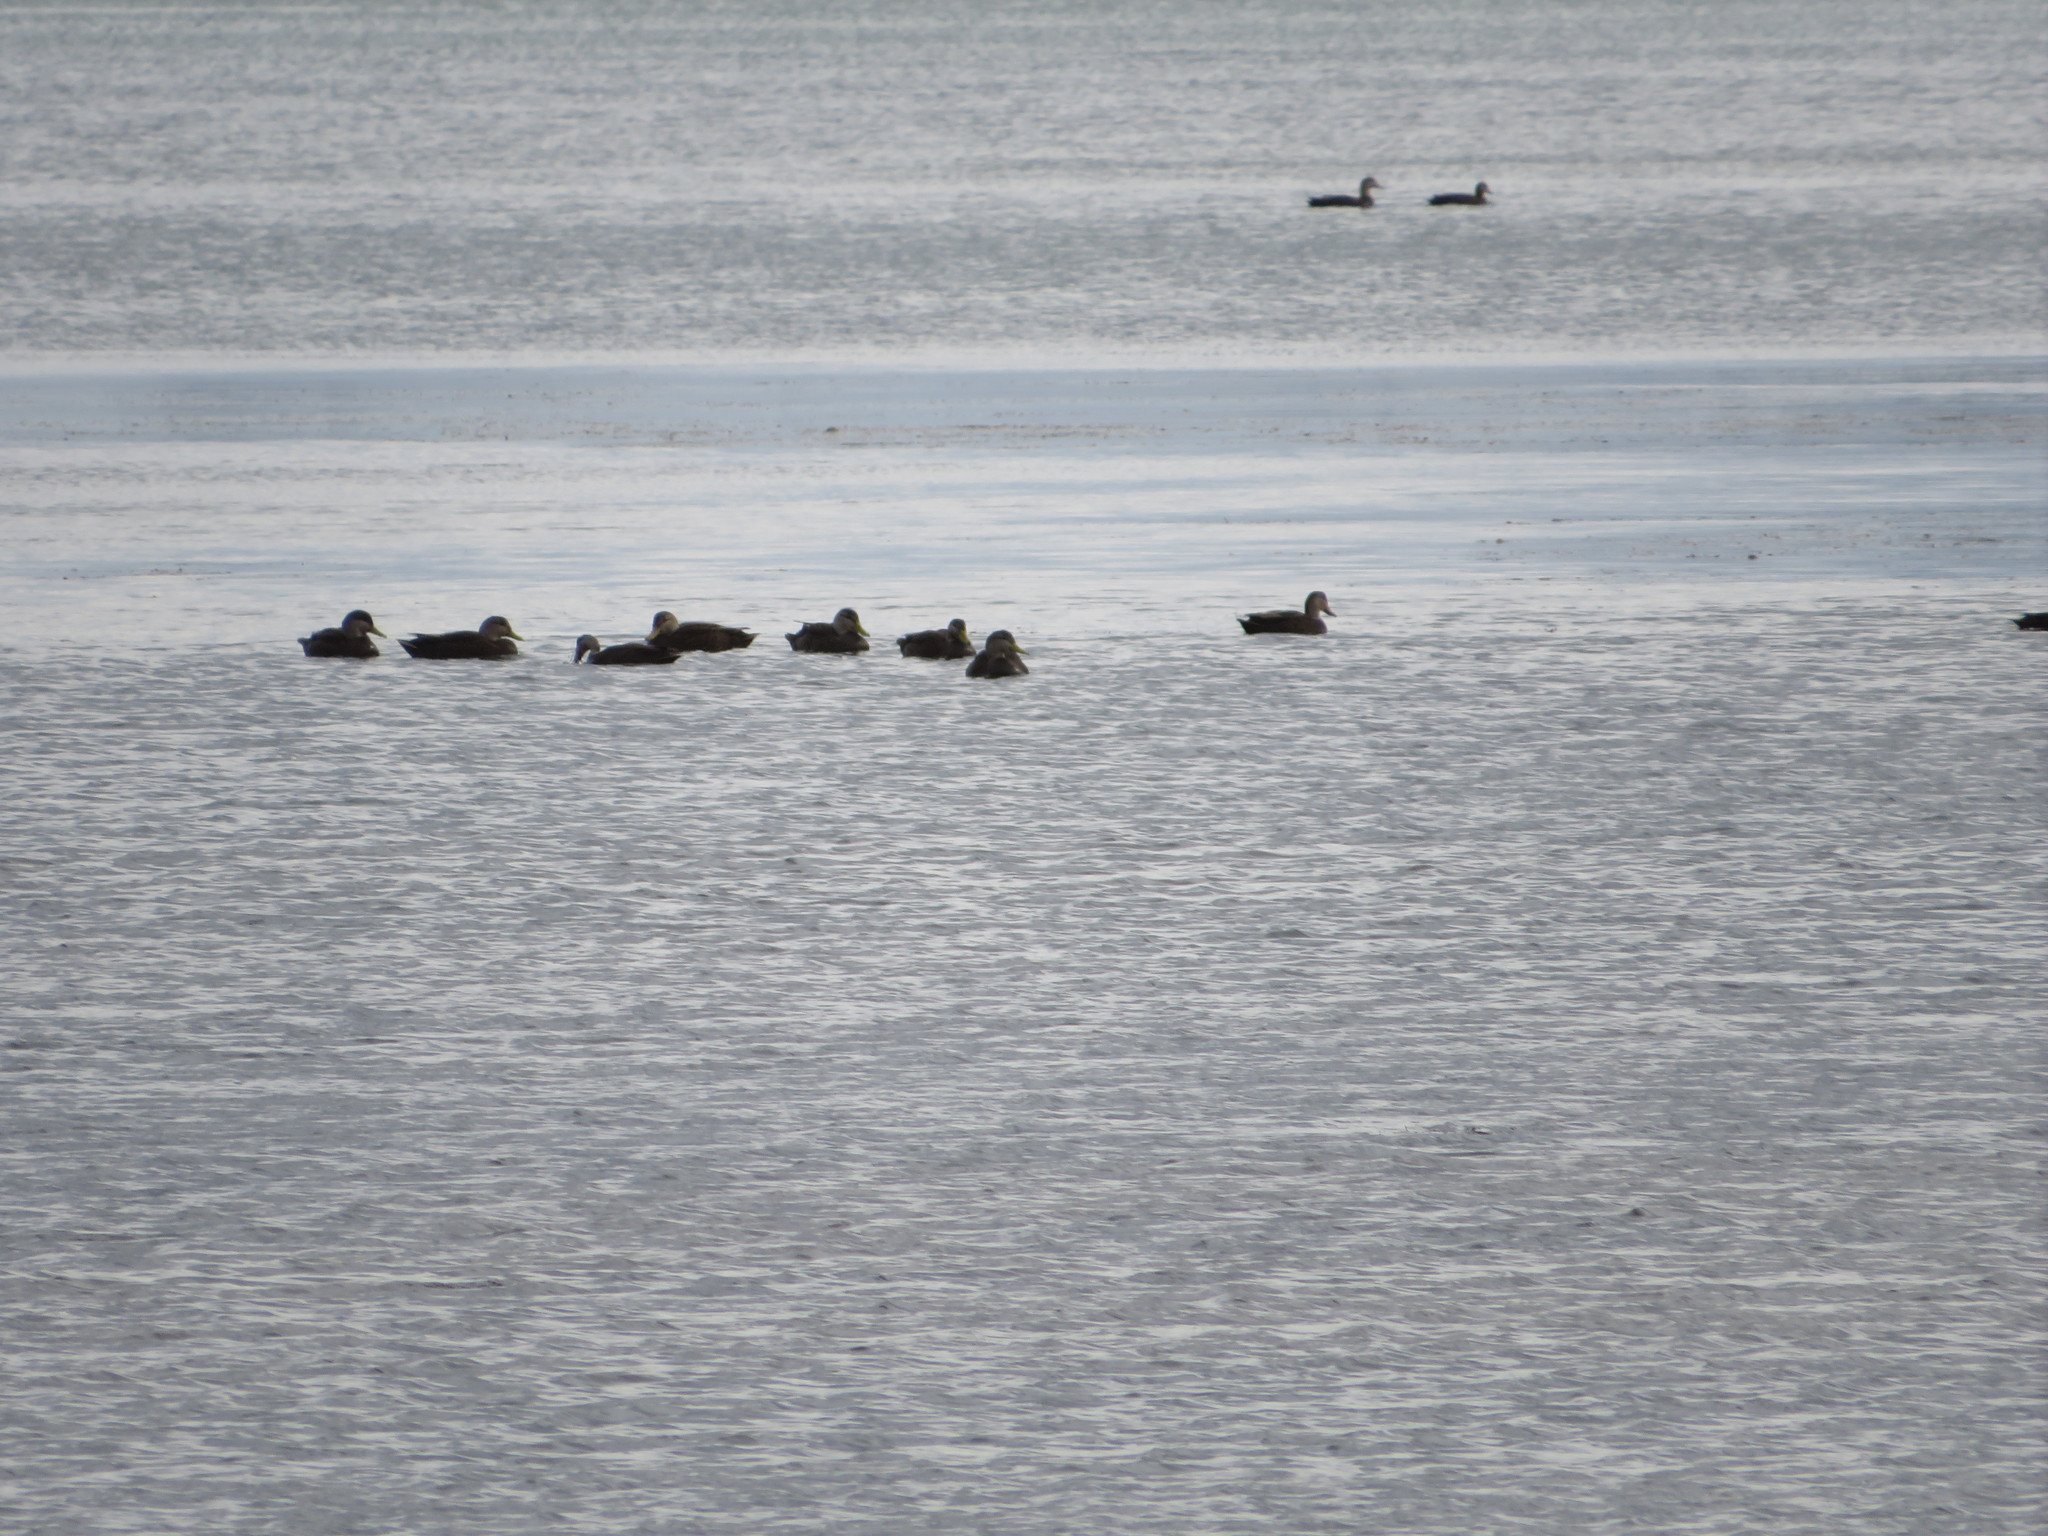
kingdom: Animalia
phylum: Chordata
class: Aves
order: Anseriformes
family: Anatidae
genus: Anas
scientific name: Anas rubripes
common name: American black duck
